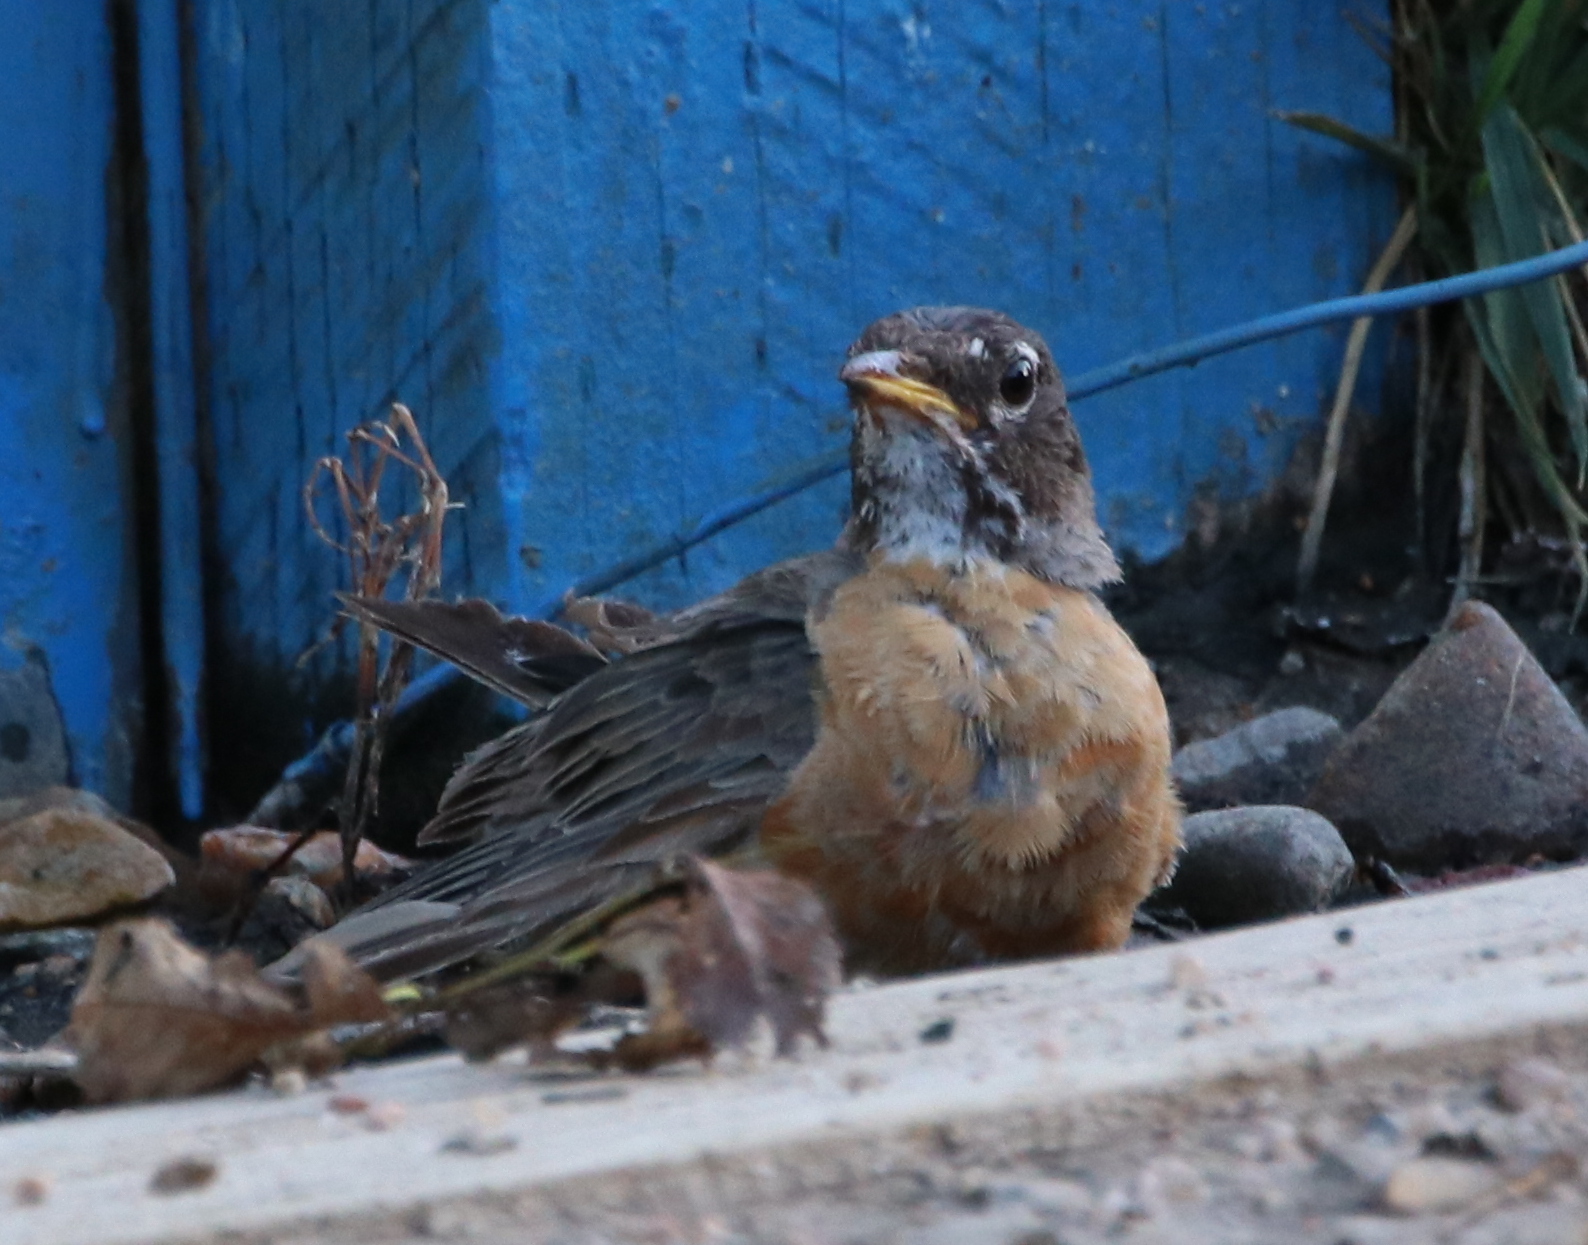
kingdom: Animalia
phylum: Chordata
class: Aves
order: Passeriformes
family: Turdidae
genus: Turdus
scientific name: Turdus migratorius
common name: American robin
